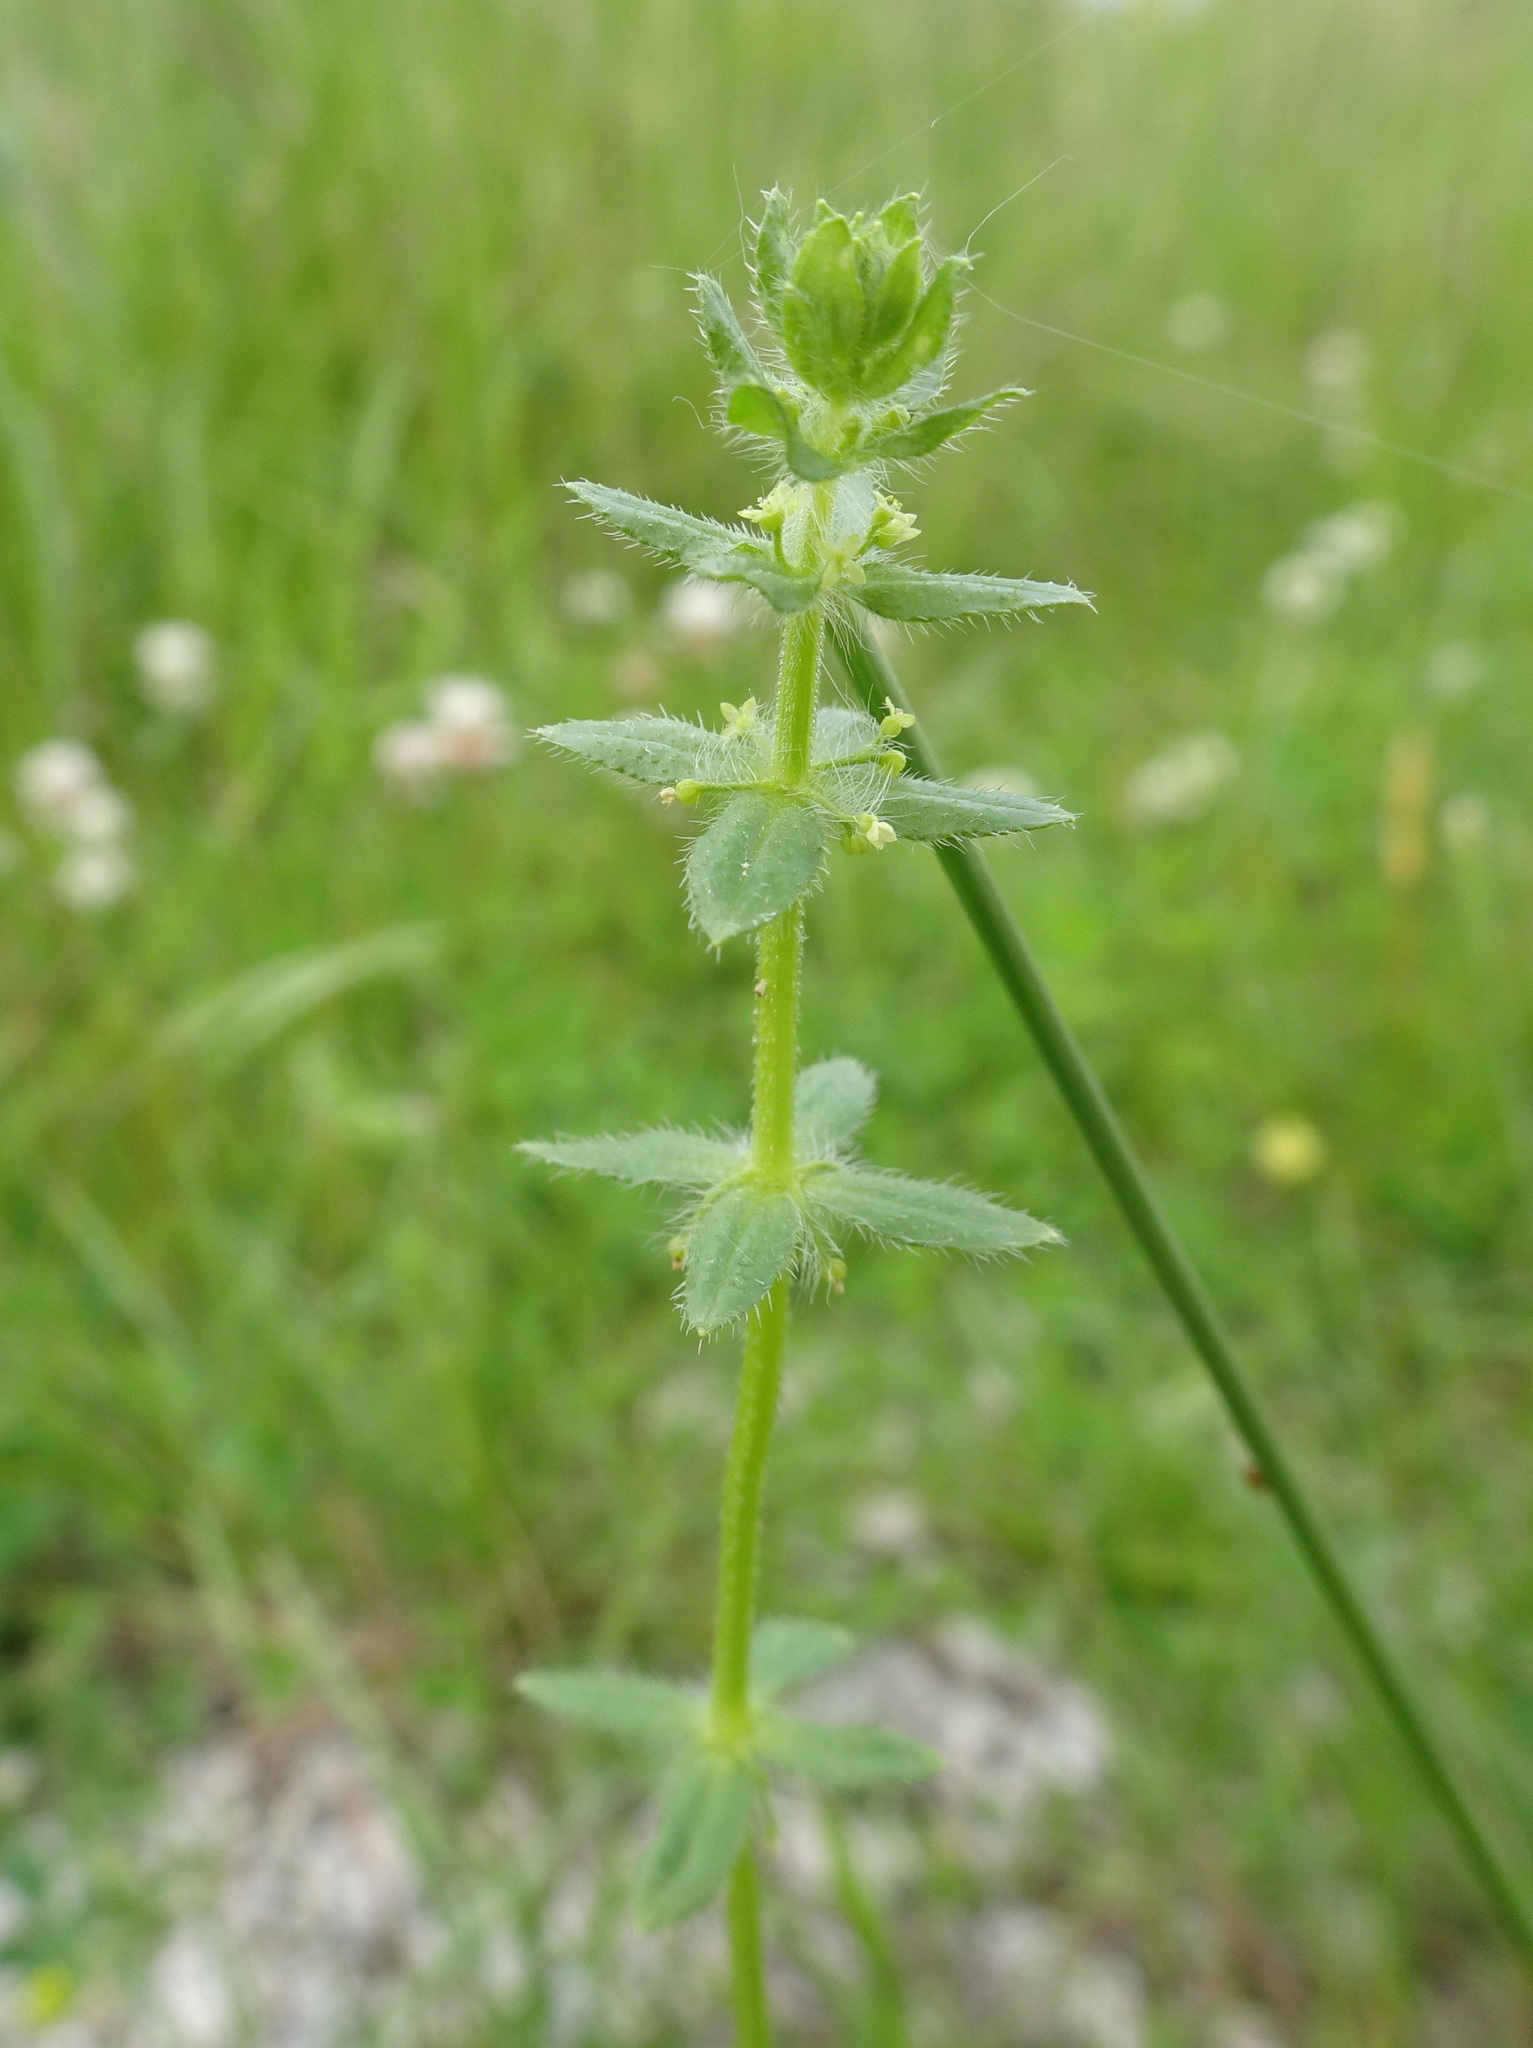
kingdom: Plantae
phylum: Tracheophyta
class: Magnoliopsida
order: Gentianales
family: Rubiaceae
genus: Cruciata
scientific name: Cruciata pedemontana
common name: Piedmont bedstraw
